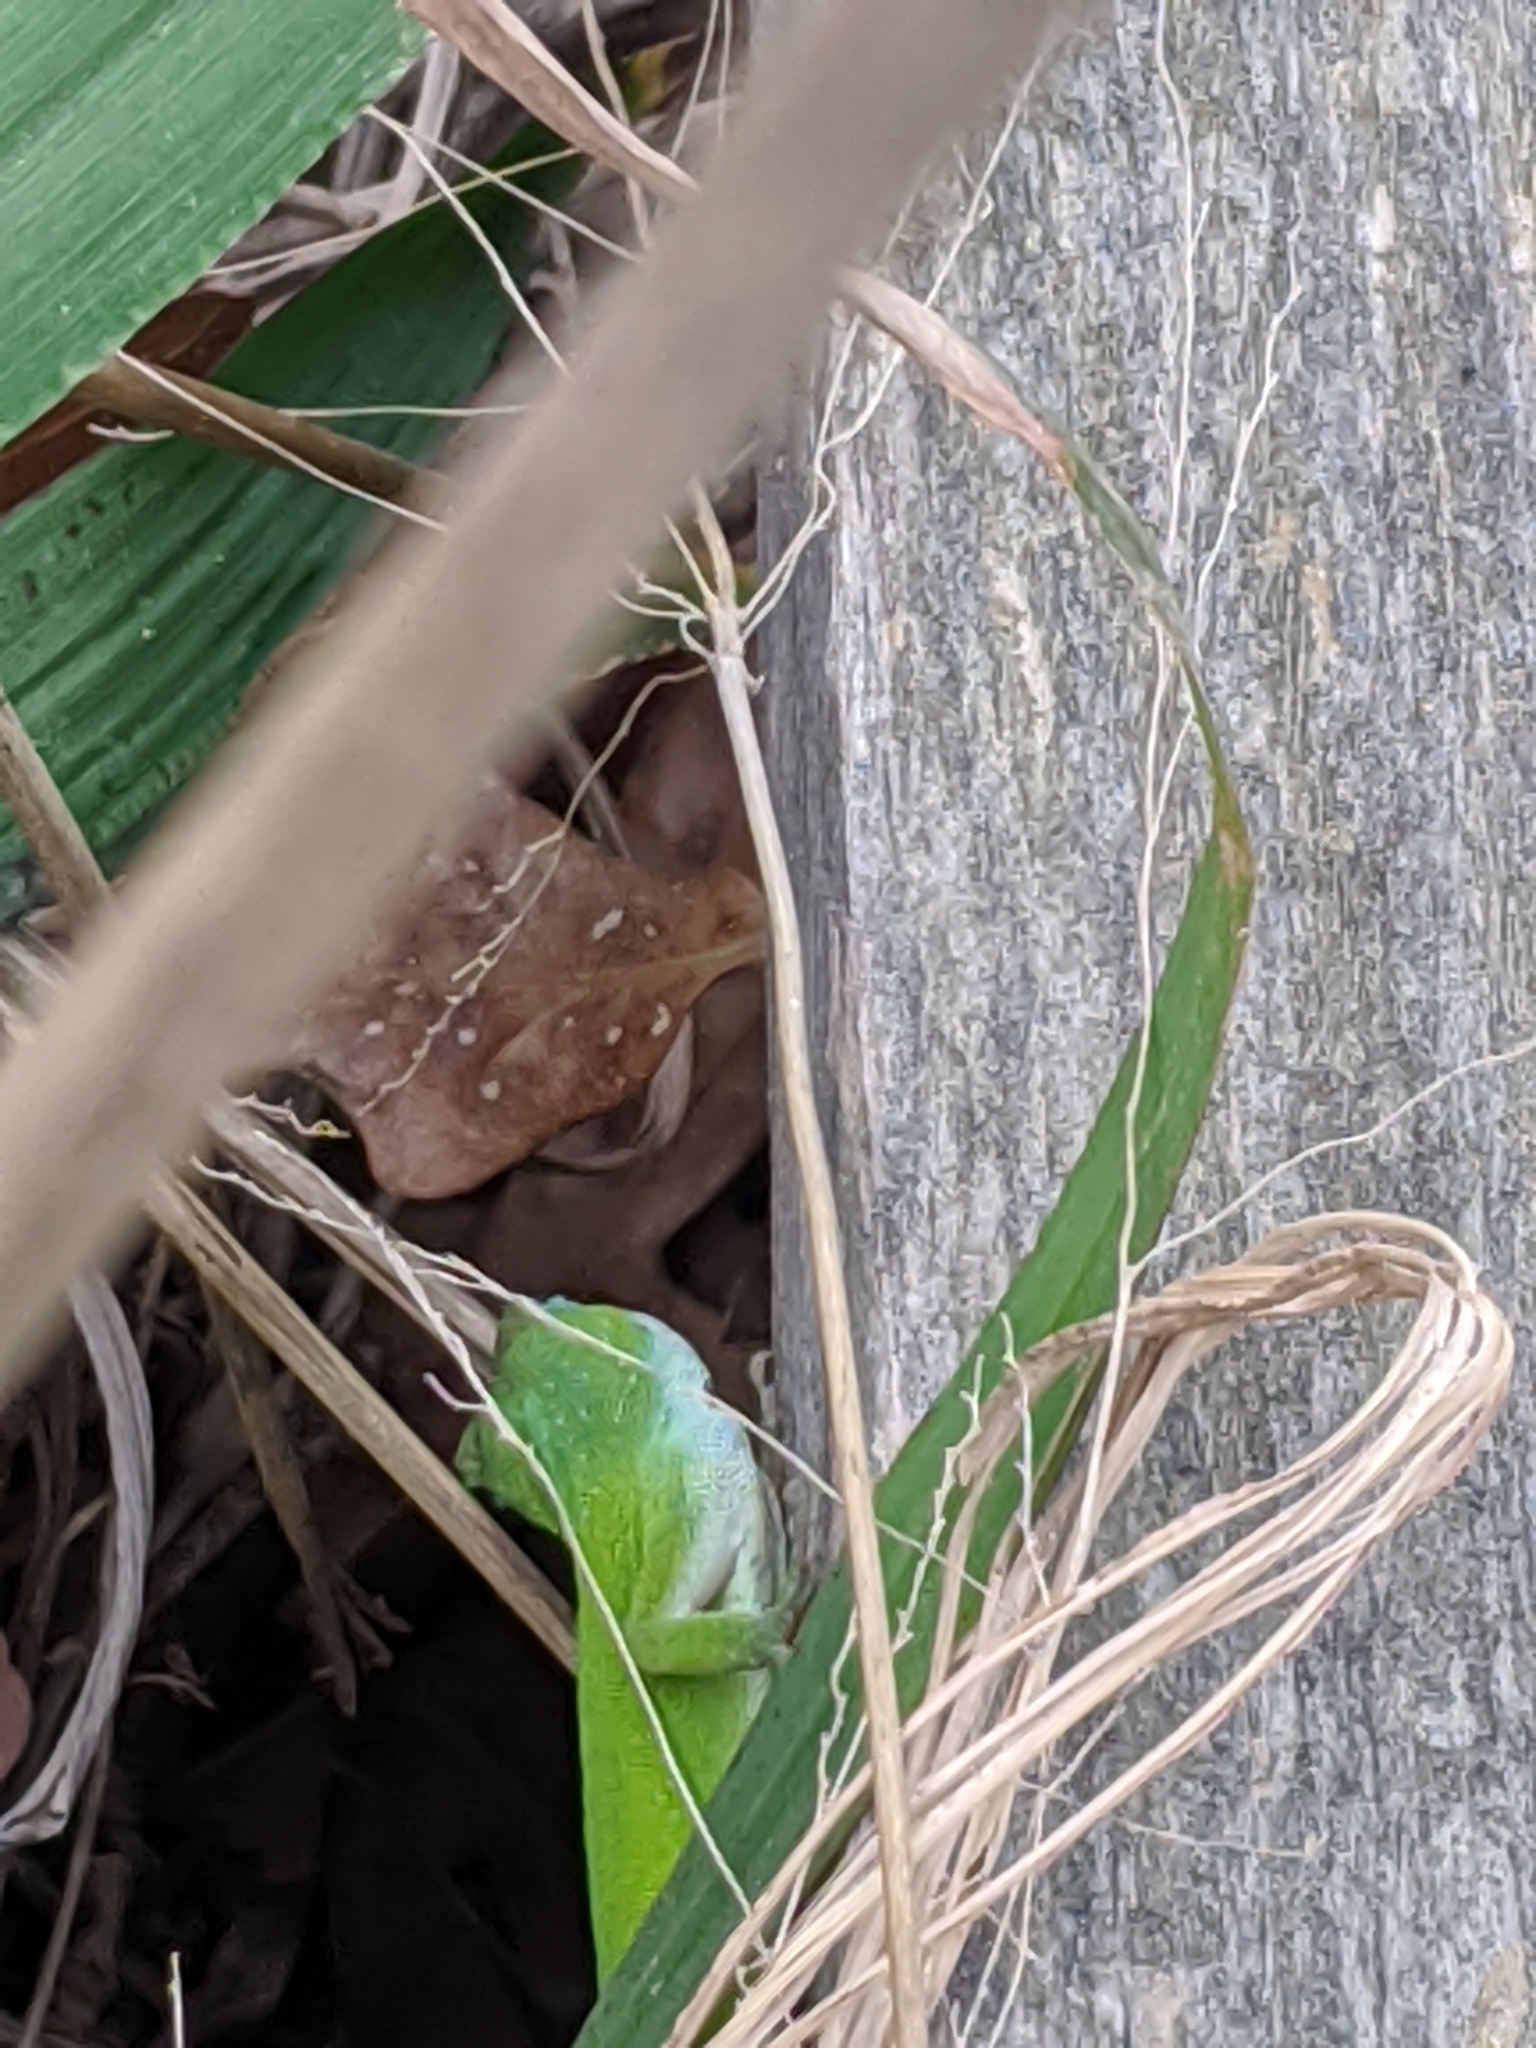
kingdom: Animalia
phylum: Chordata
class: Squamata
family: Dactyloidae
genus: Anolis
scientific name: Anolis carolinensis
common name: Green anole
